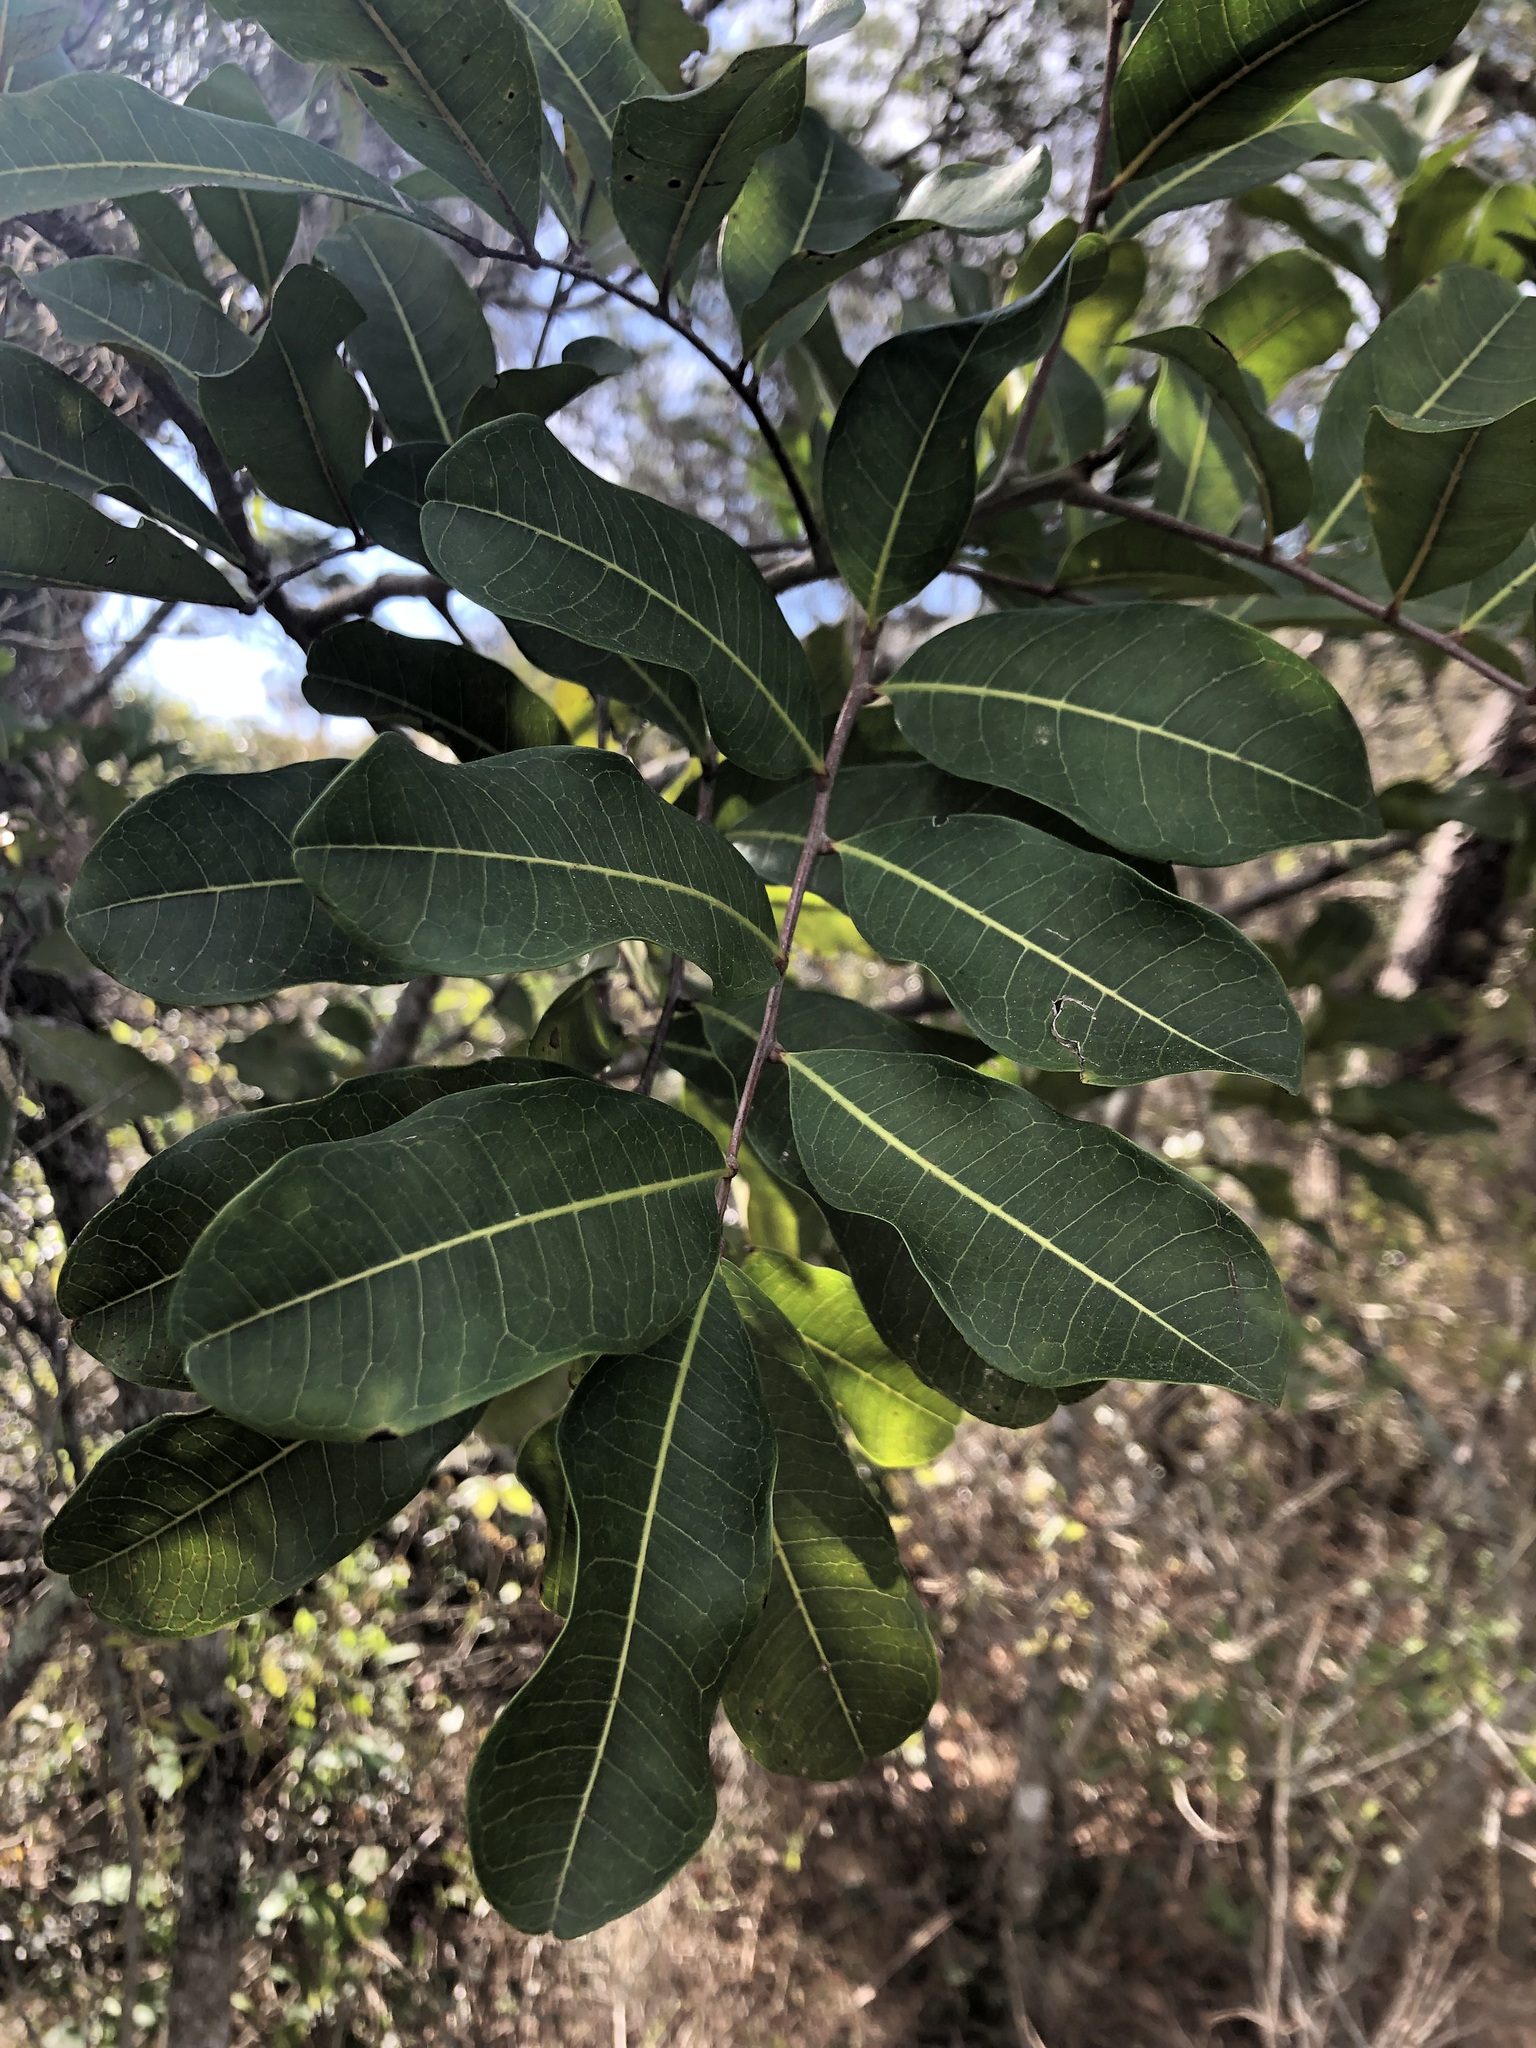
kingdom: Plantae
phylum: Tracheophyta
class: Magnoliopsida
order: Sapindales
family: Sapindaceae
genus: Cupaniopsis
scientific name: Cupaniopsis anacardioides
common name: Carrotwood
